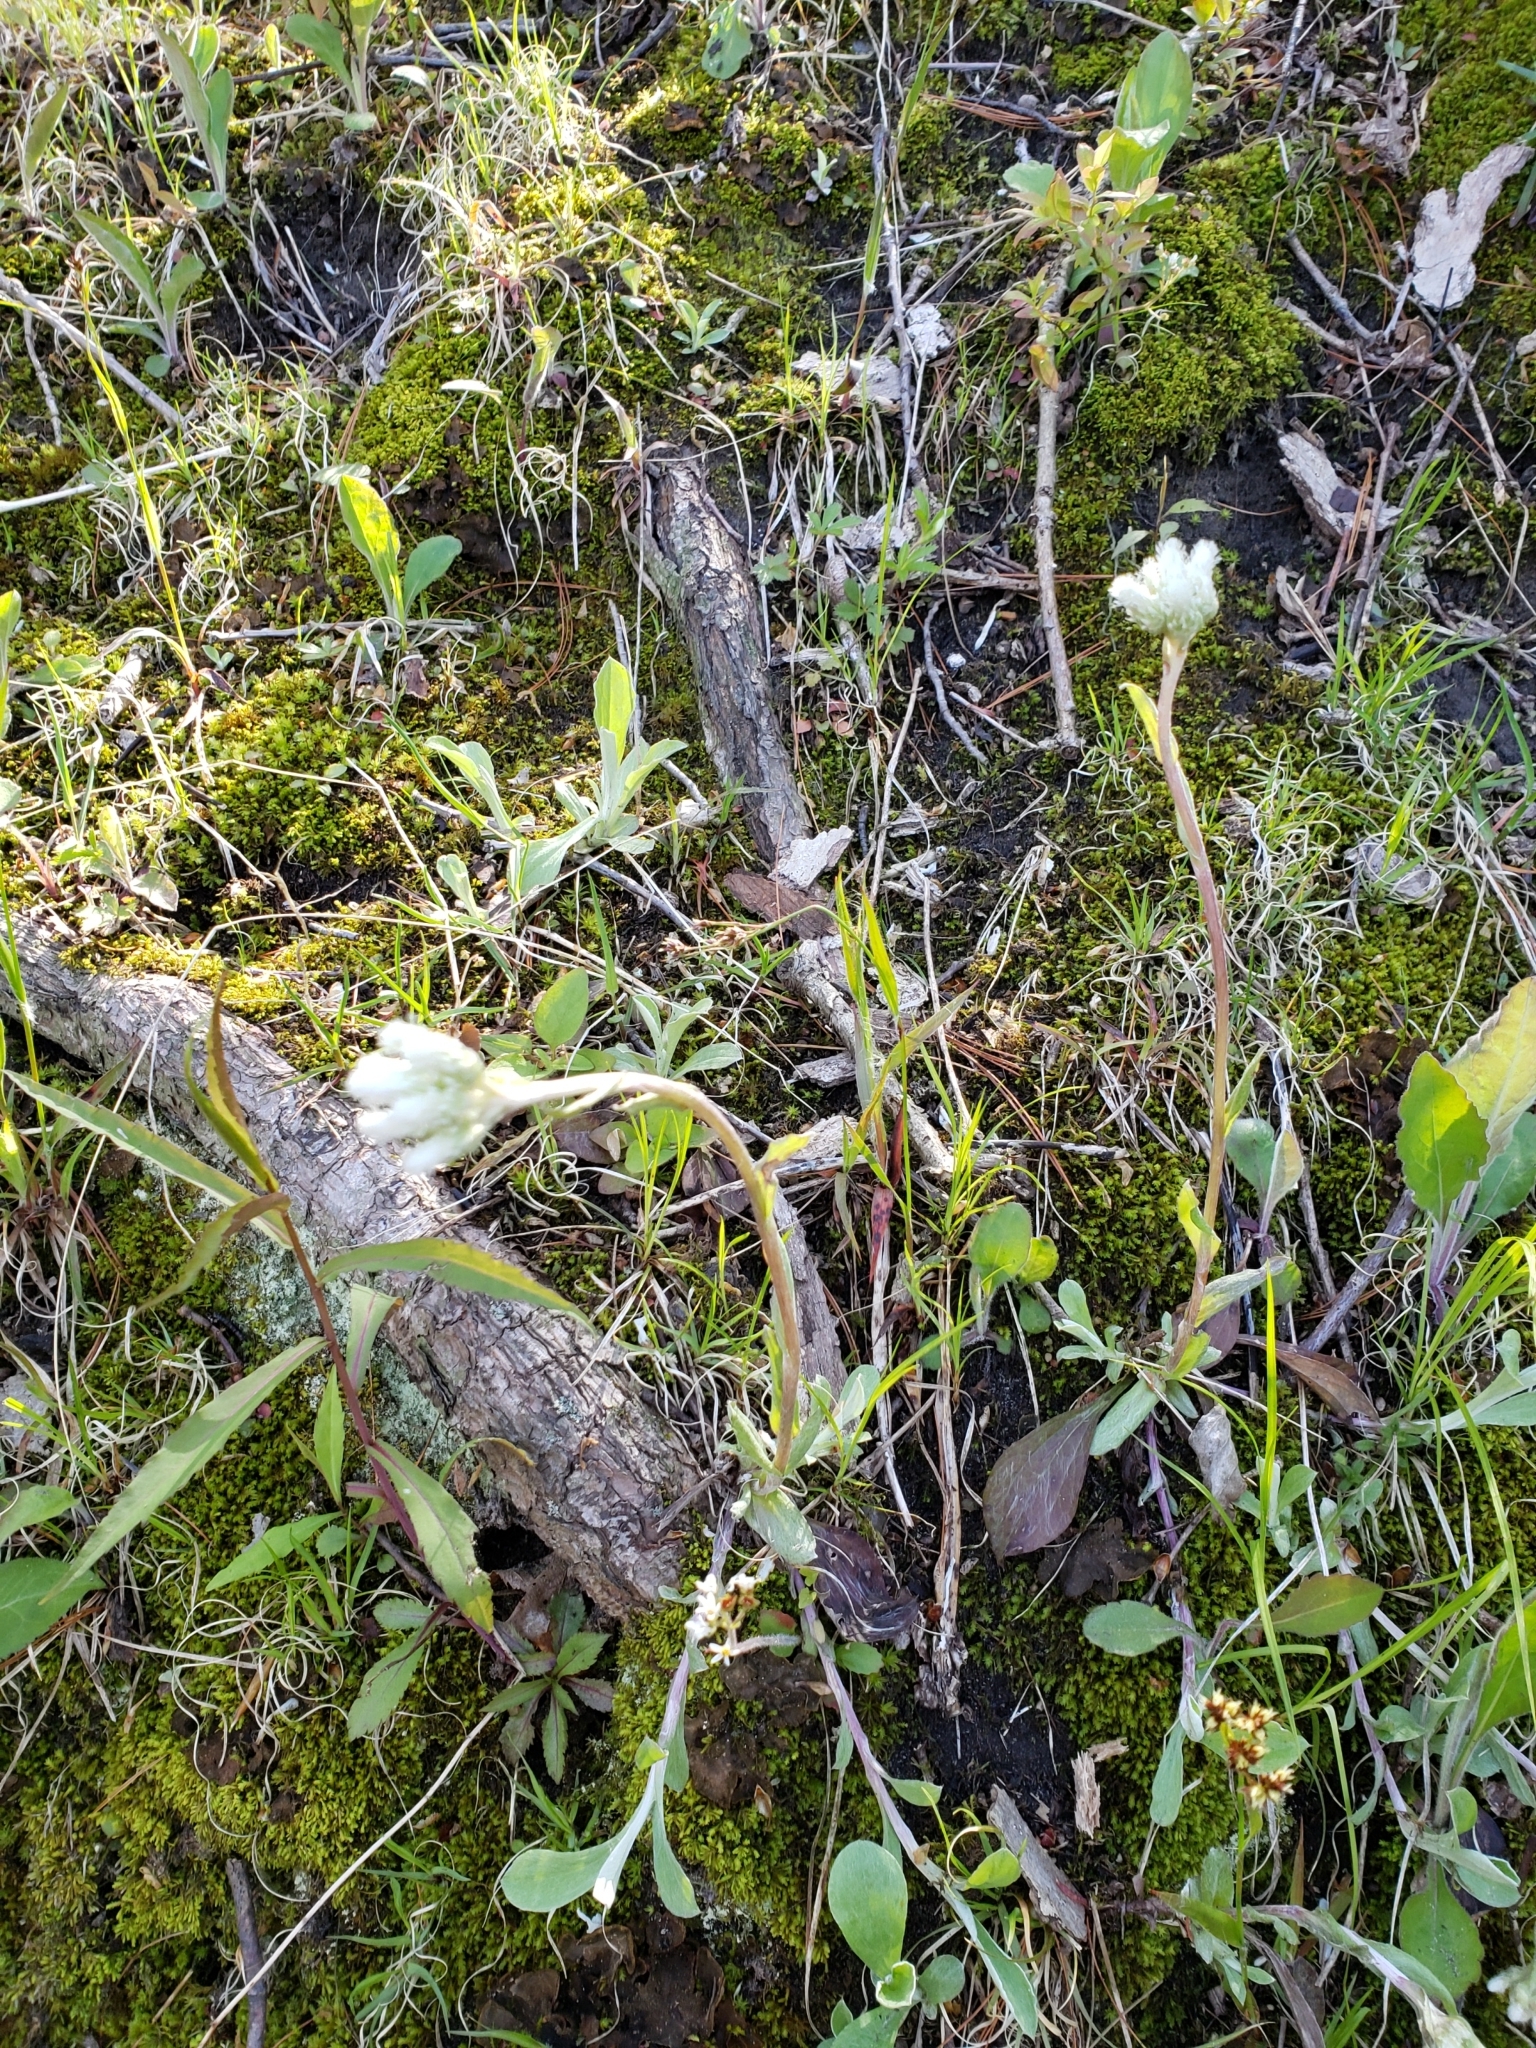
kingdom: Plantae
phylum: Tracheophyta
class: Magnoliopsida
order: Asterales
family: Asteraceae
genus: Antennaria
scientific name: Antennaria parlinii
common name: Parlin's pussytoes
